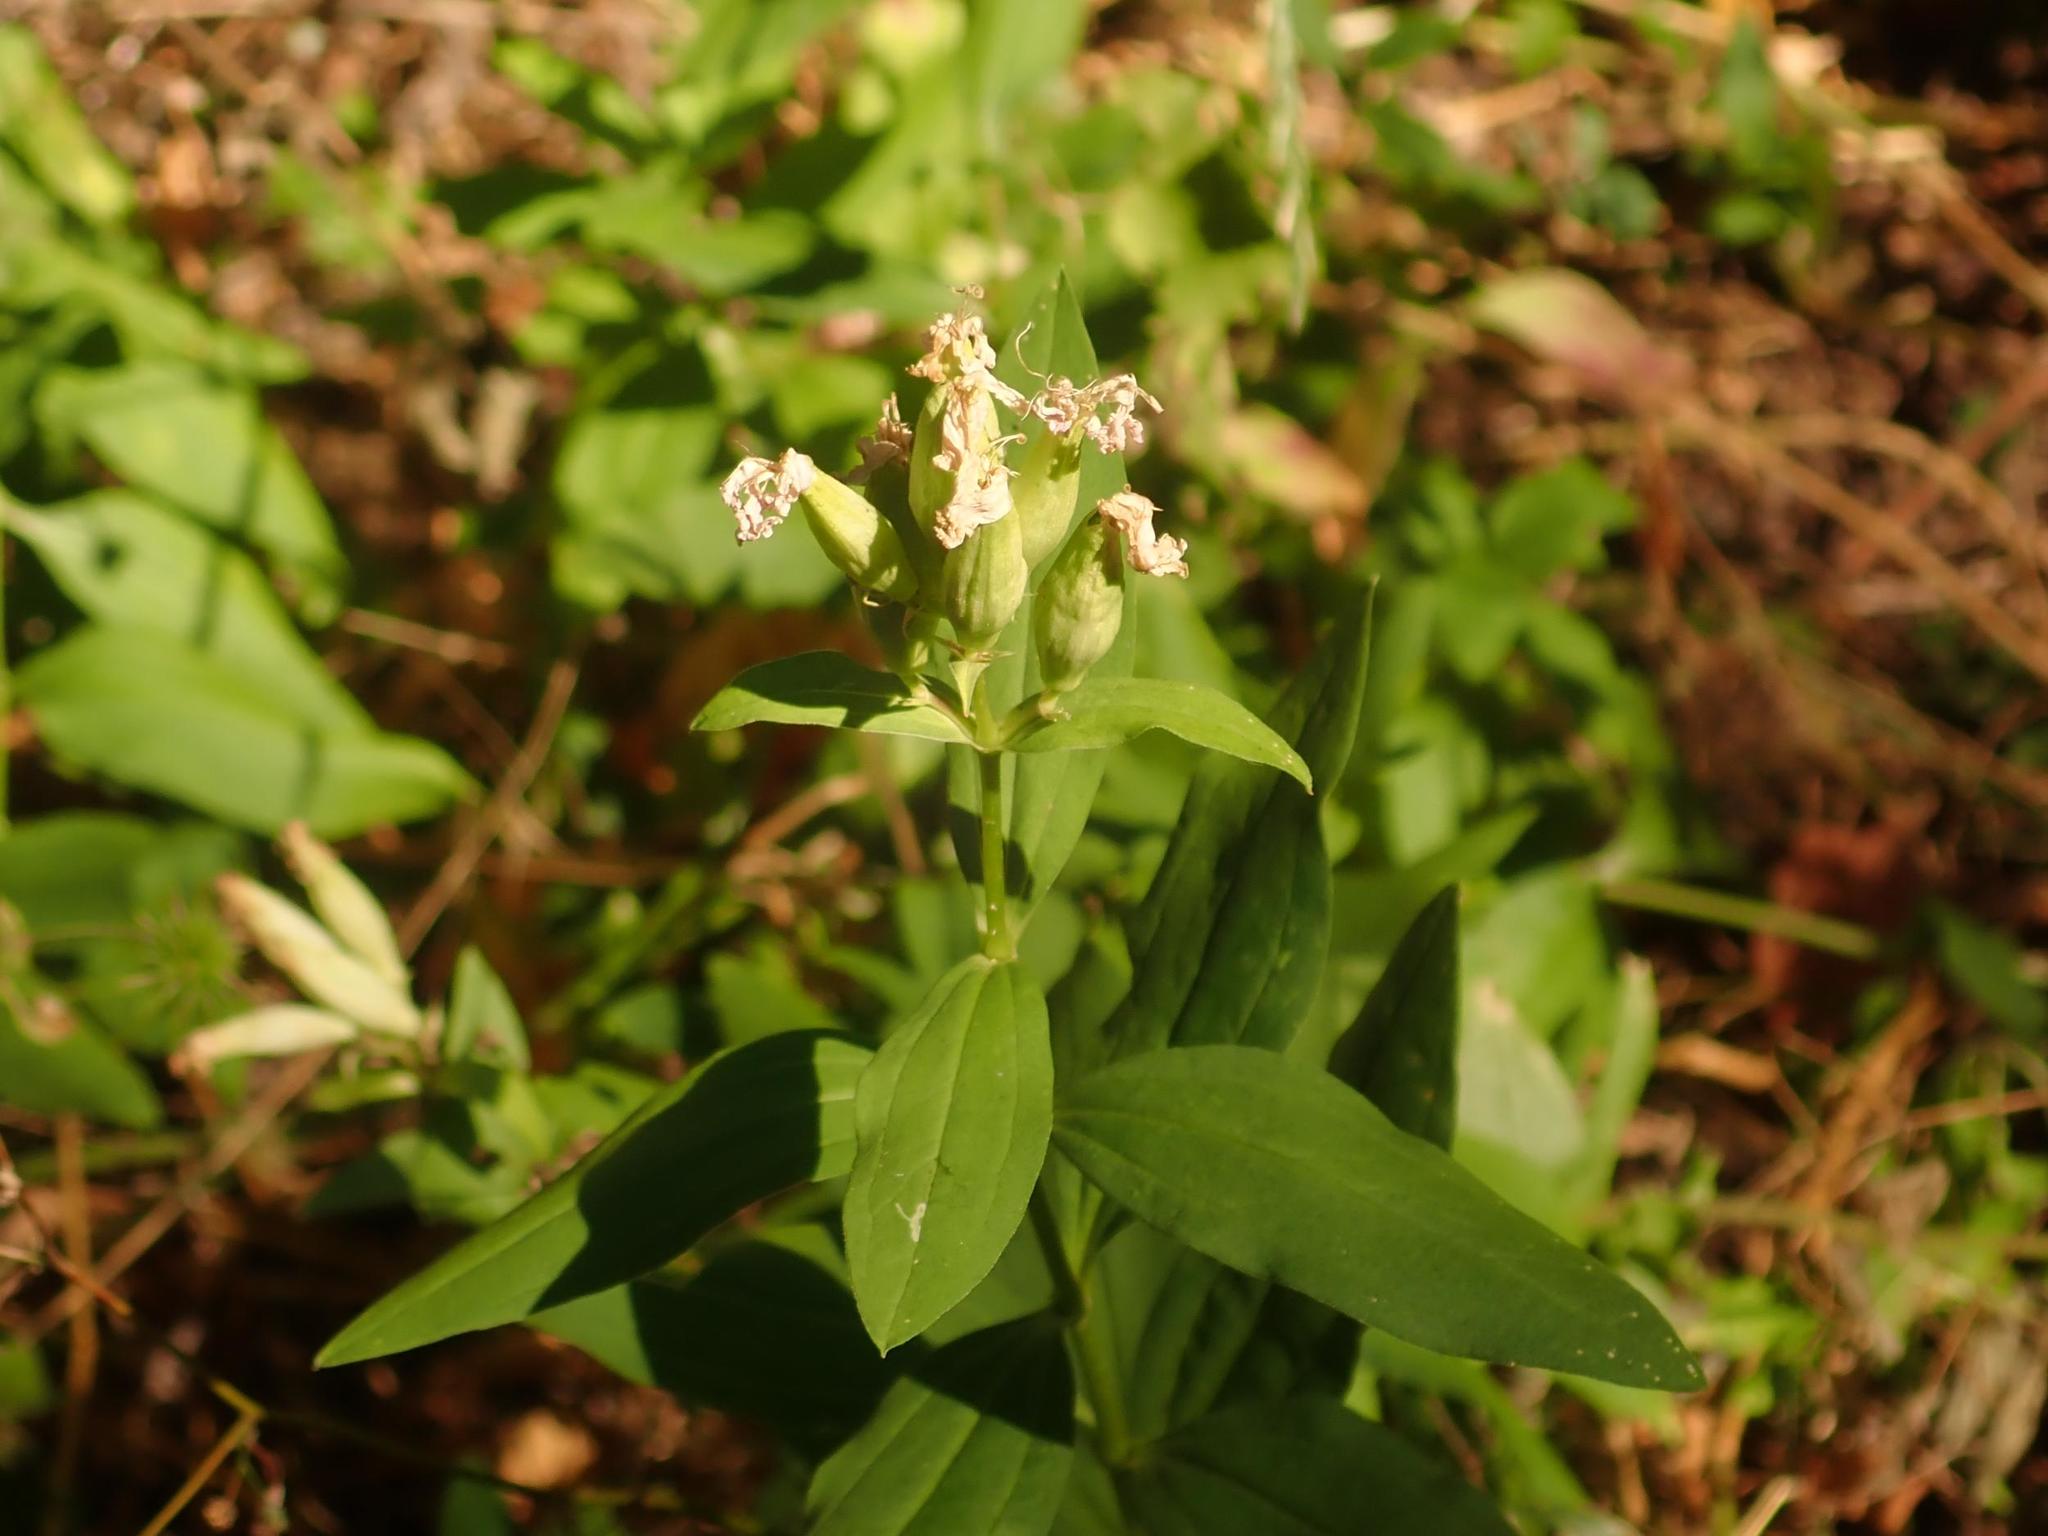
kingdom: Plantae
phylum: Tracheophyta
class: Magnoliopsida
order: Caryophyllales
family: Caryophyllaceae
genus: Saponaria
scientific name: Saponaria officinalis
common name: Soapwort
